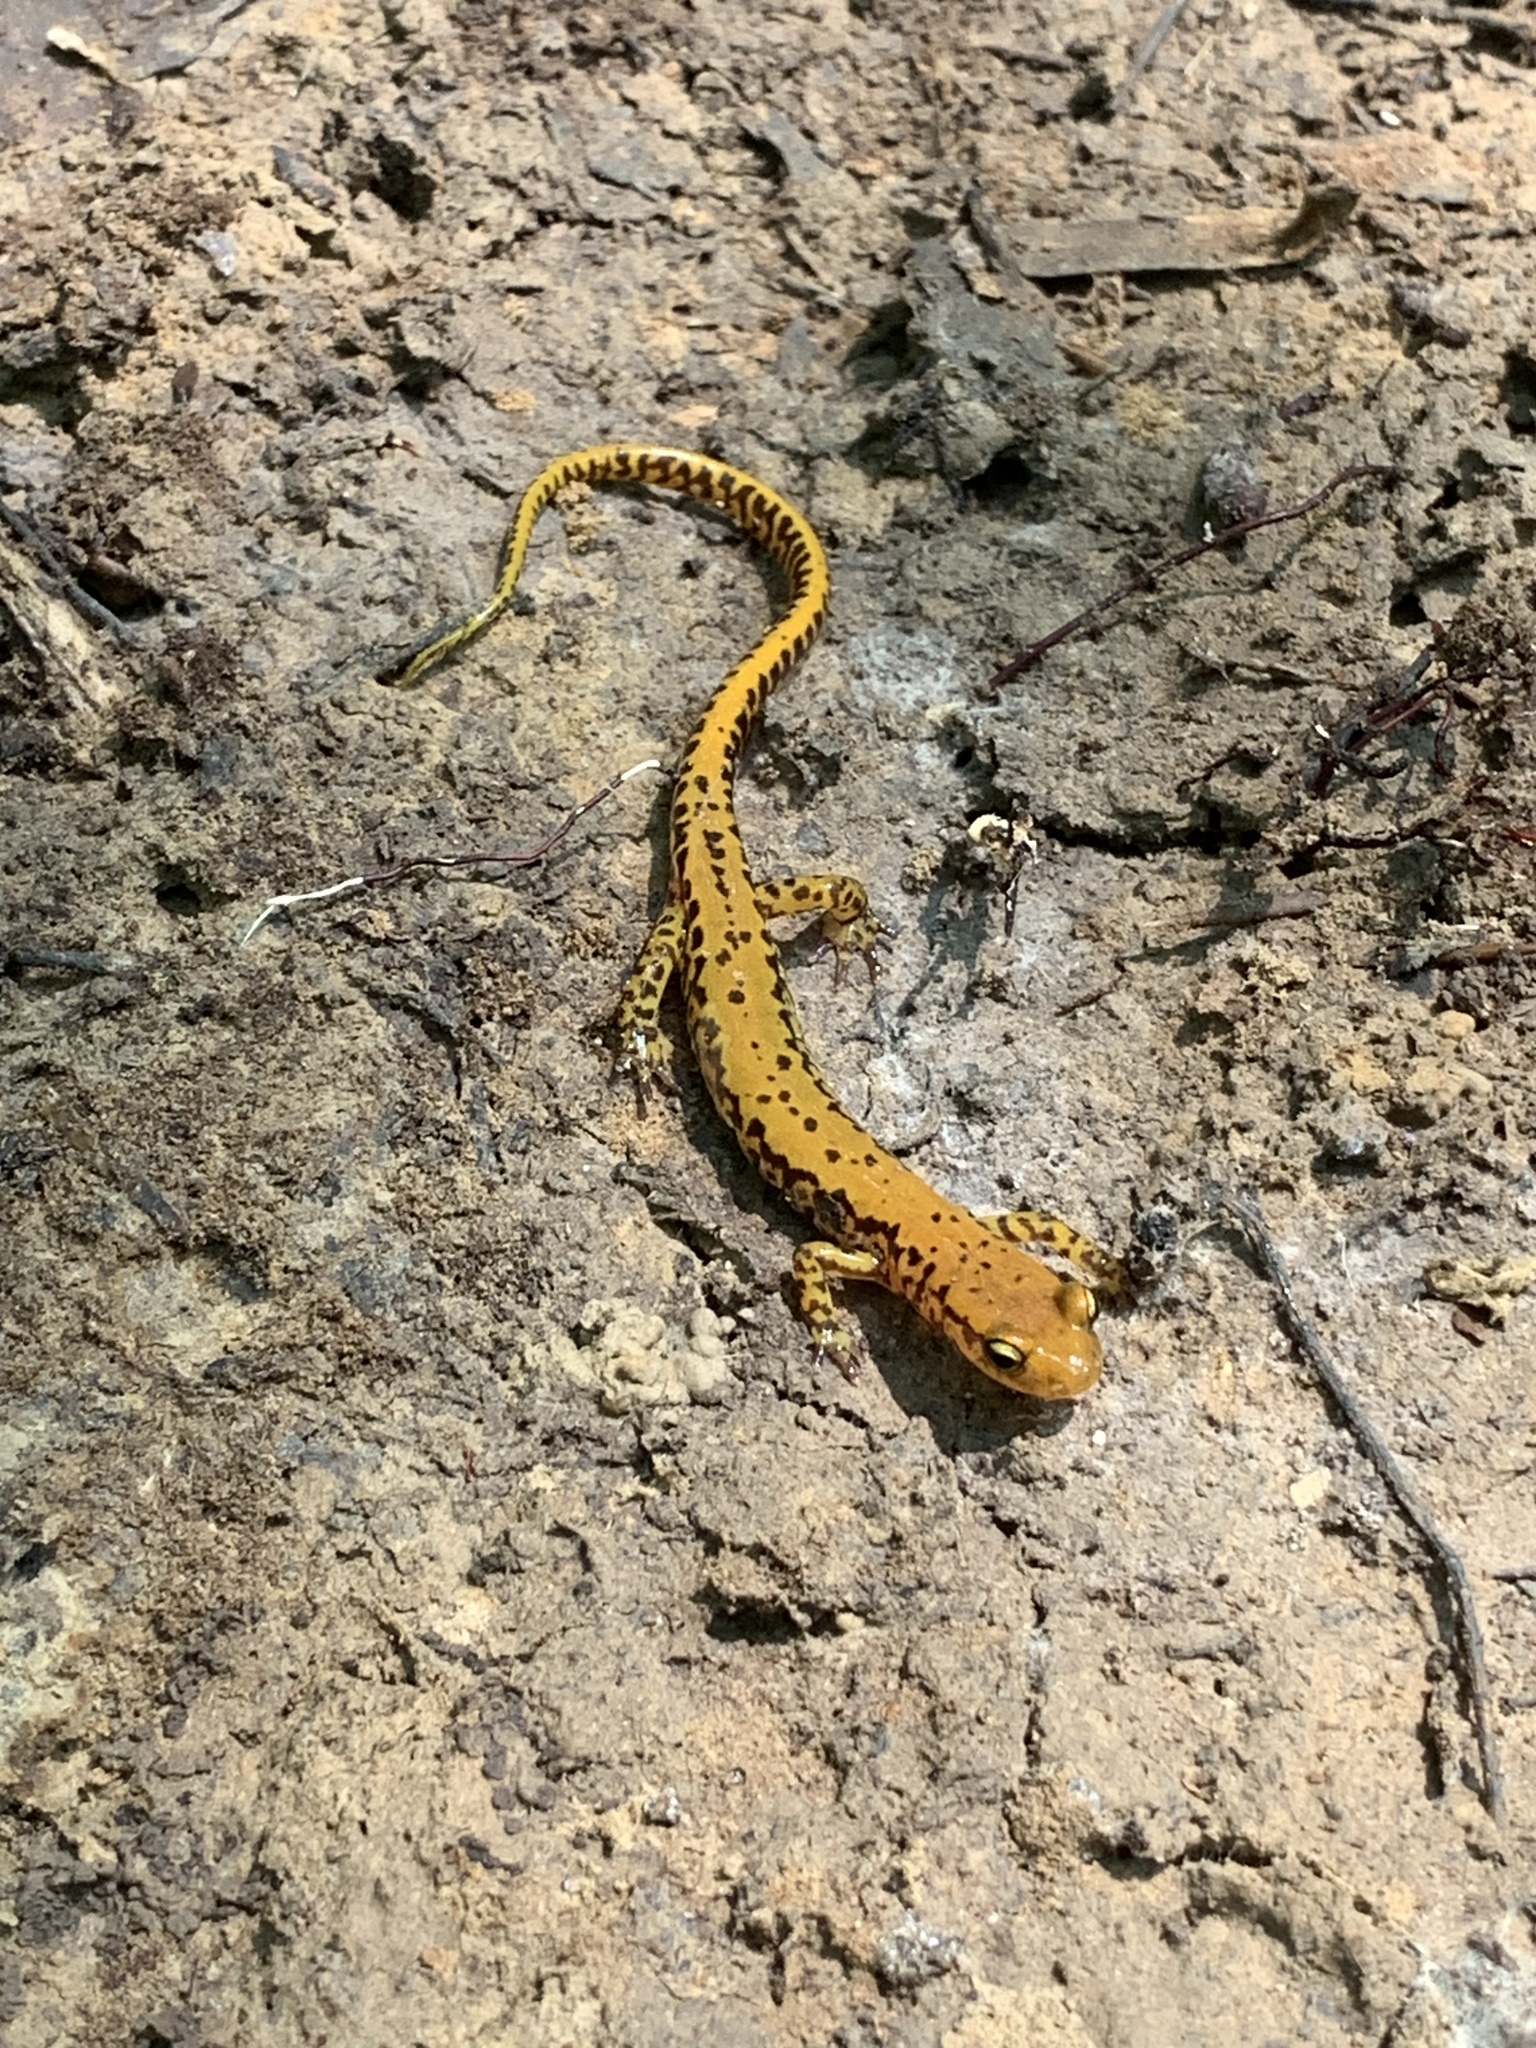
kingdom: Animalia
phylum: Chordata
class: Amphibia
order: Caudata
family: Plethodontidae
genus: Eurycea
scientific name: Eurycea longicauda
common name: Long-tailed salamander
